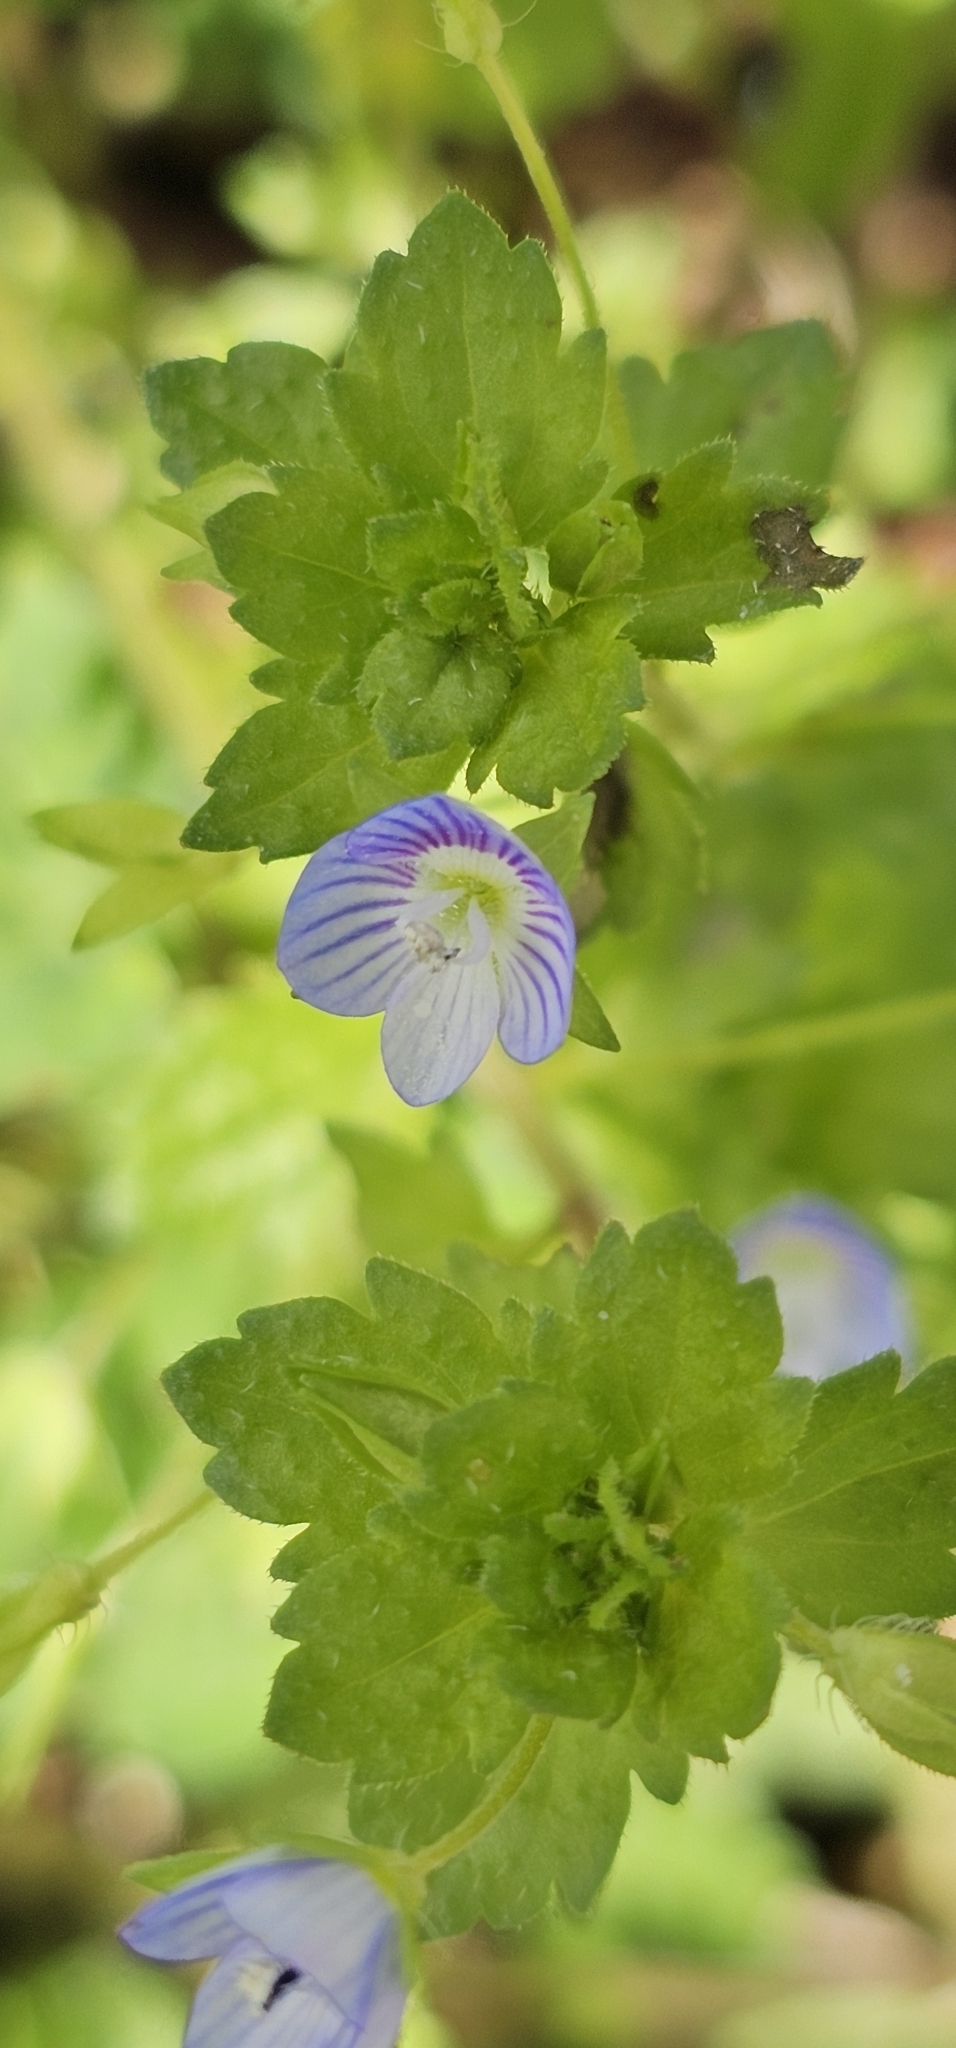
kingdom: Plantae
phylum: Tracheophyta
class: Magnoliopsida
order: Lamiales
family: Plantaginaceae
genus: Veronica
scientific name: Veronica persica
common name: Common field-speedwell
